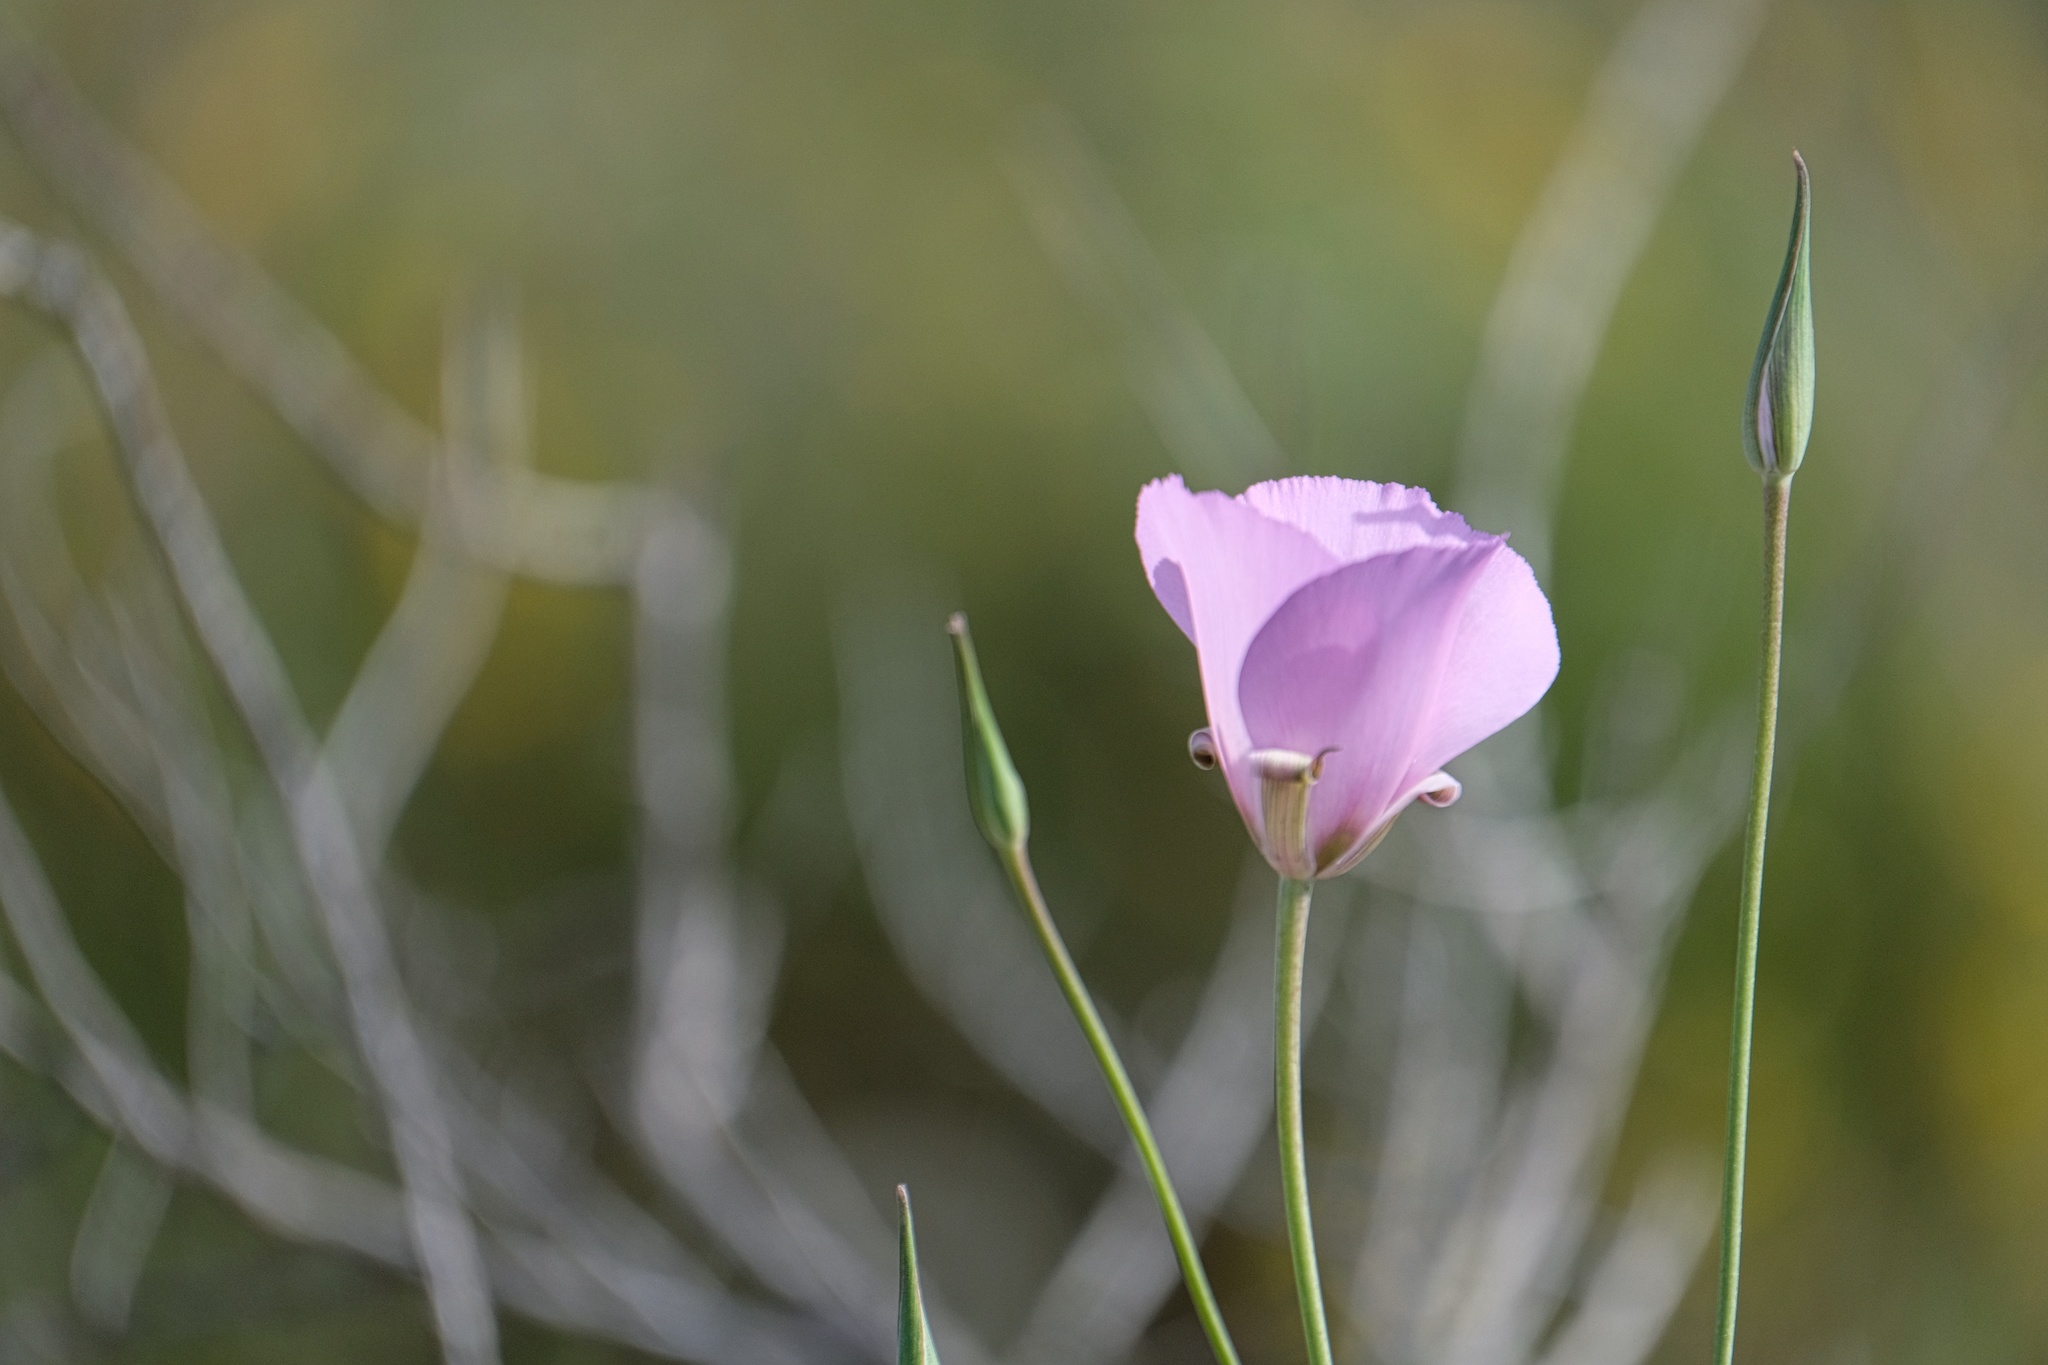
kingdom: Plantae
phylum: Tracheophyta
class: Liliopsida
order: Liliales
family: Liliaceae
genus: Calochortus
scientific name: Calochortus splendens
